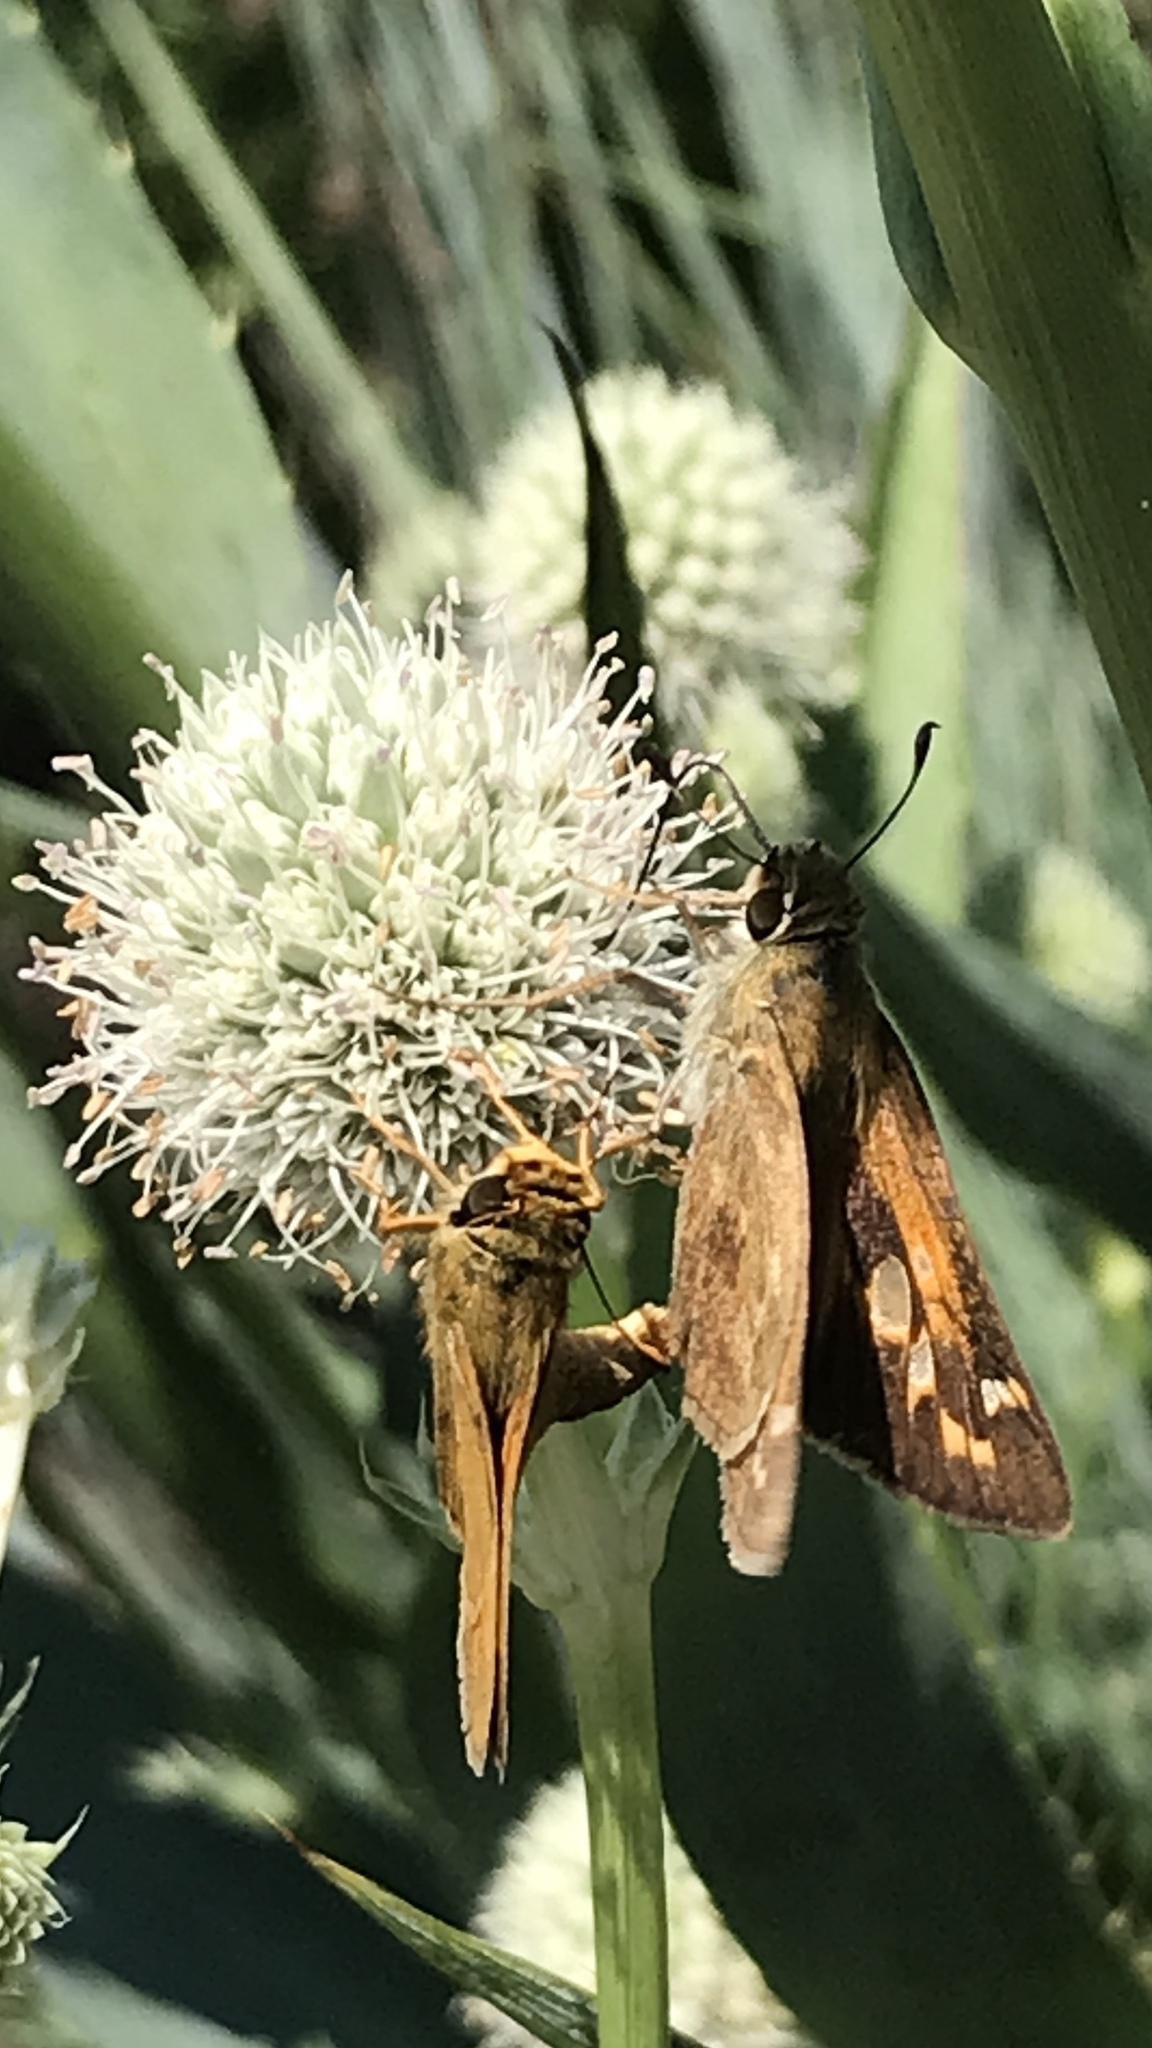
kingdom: Animalia
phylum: Arthropoda
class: Insecta
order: Lepidoptera
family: Hesperiidae
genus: Atalopedes
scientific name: Atalopedes
